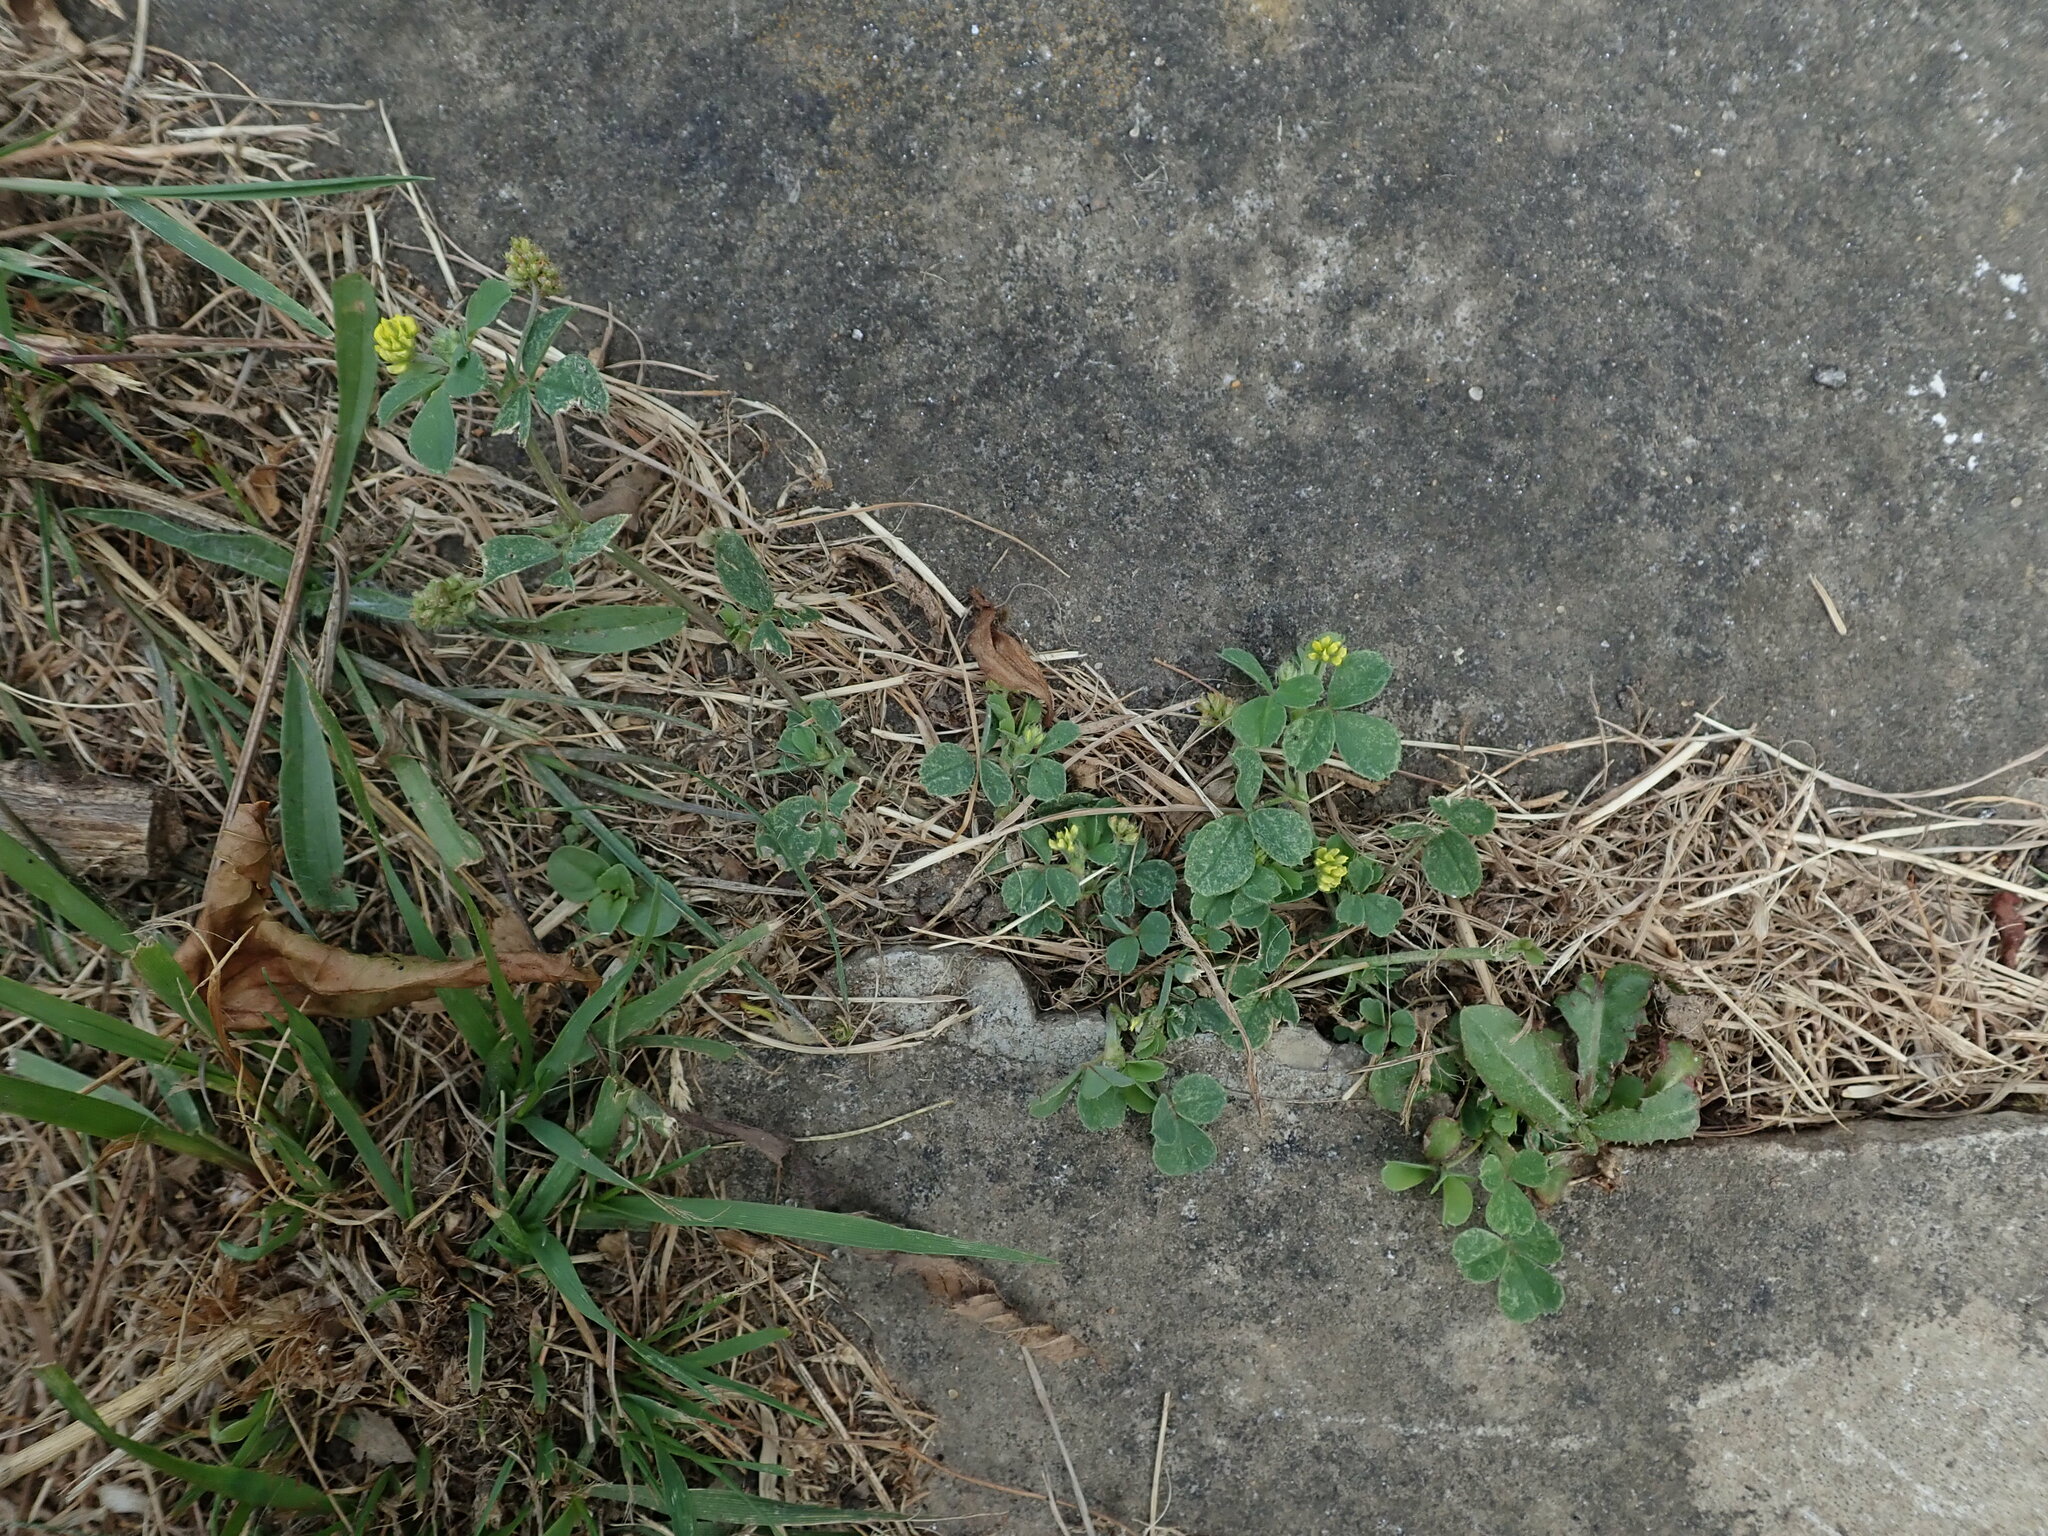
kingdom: Plantae
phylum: Tracheophyta
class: Magnoliopsida
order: Fabales
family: Fabaceae
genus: Medicago
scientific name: Medicago lupulina
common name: Black medick
